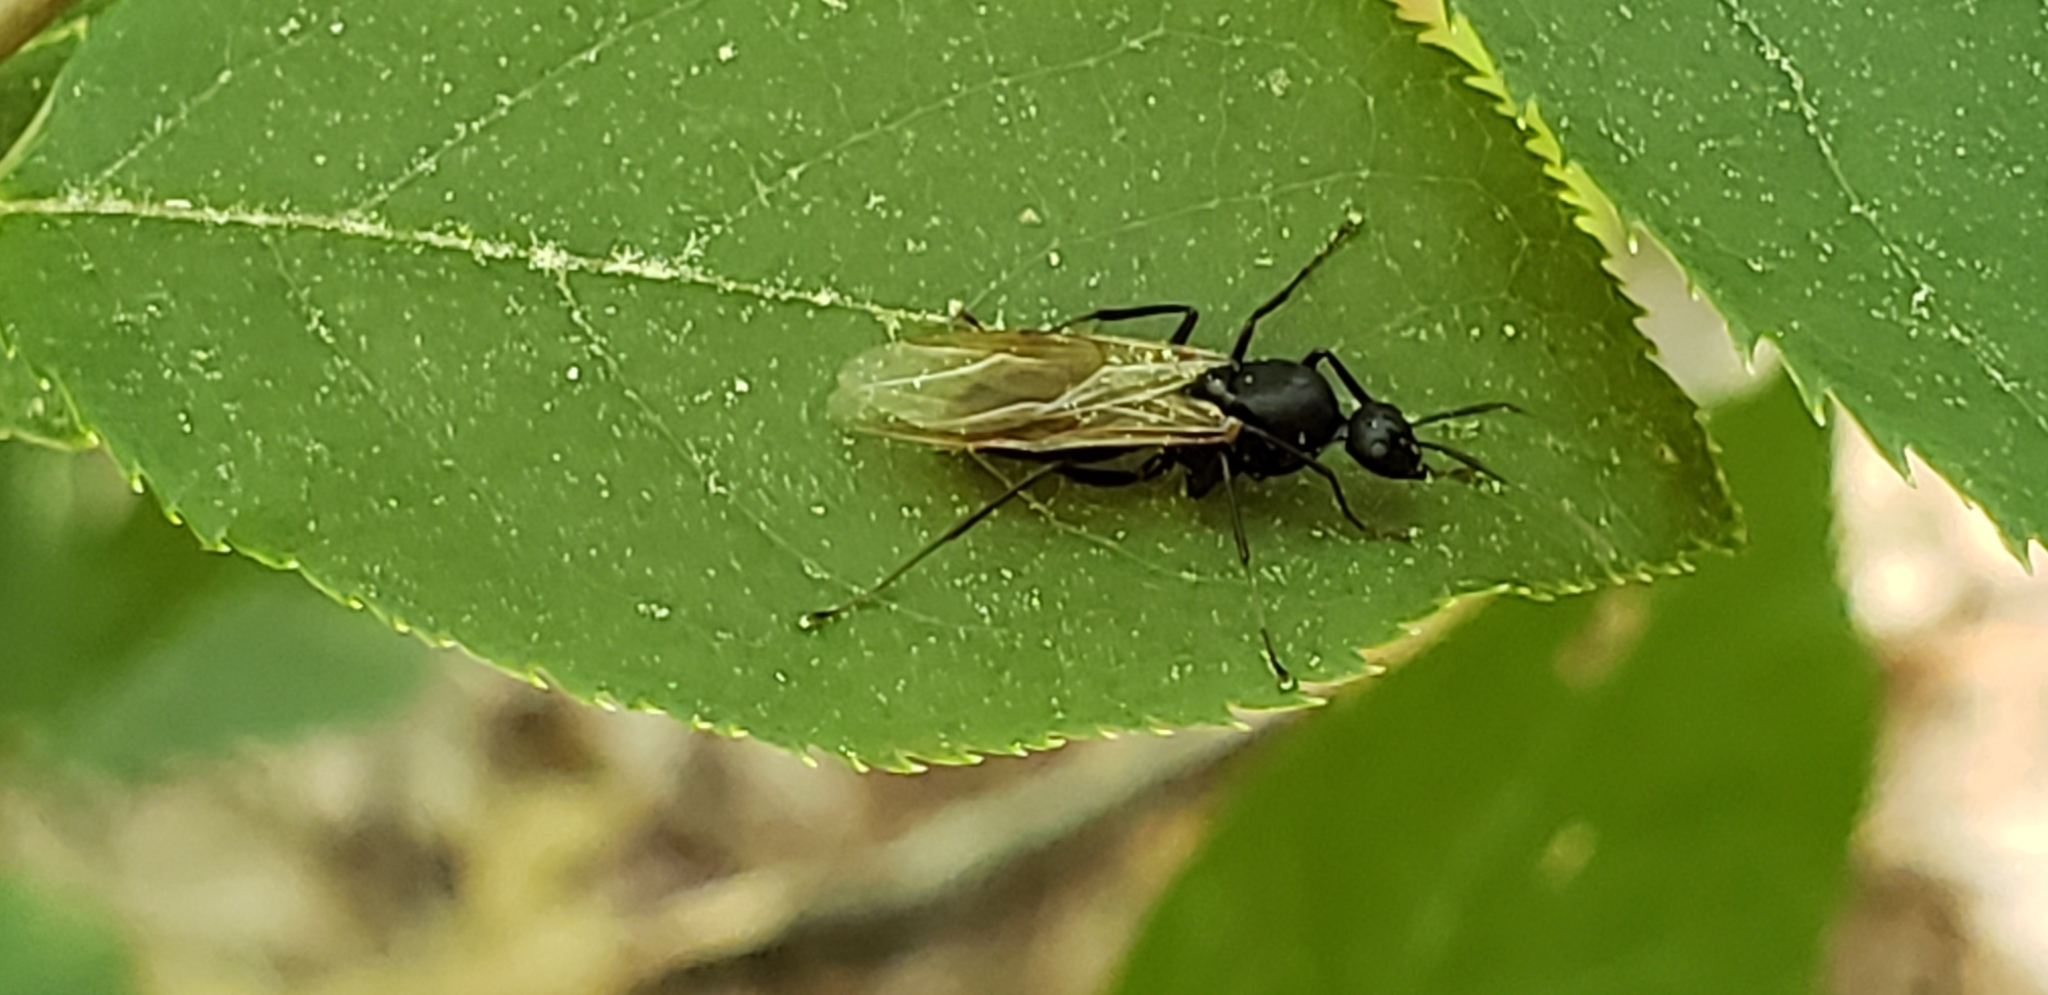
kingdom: Animalia
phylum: Arthropoda
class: Insecta
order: Hymenoptera
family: Formicidae
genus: Camponotus
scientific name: Camponotus pennsylvanicus
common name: Black carpenter ant
